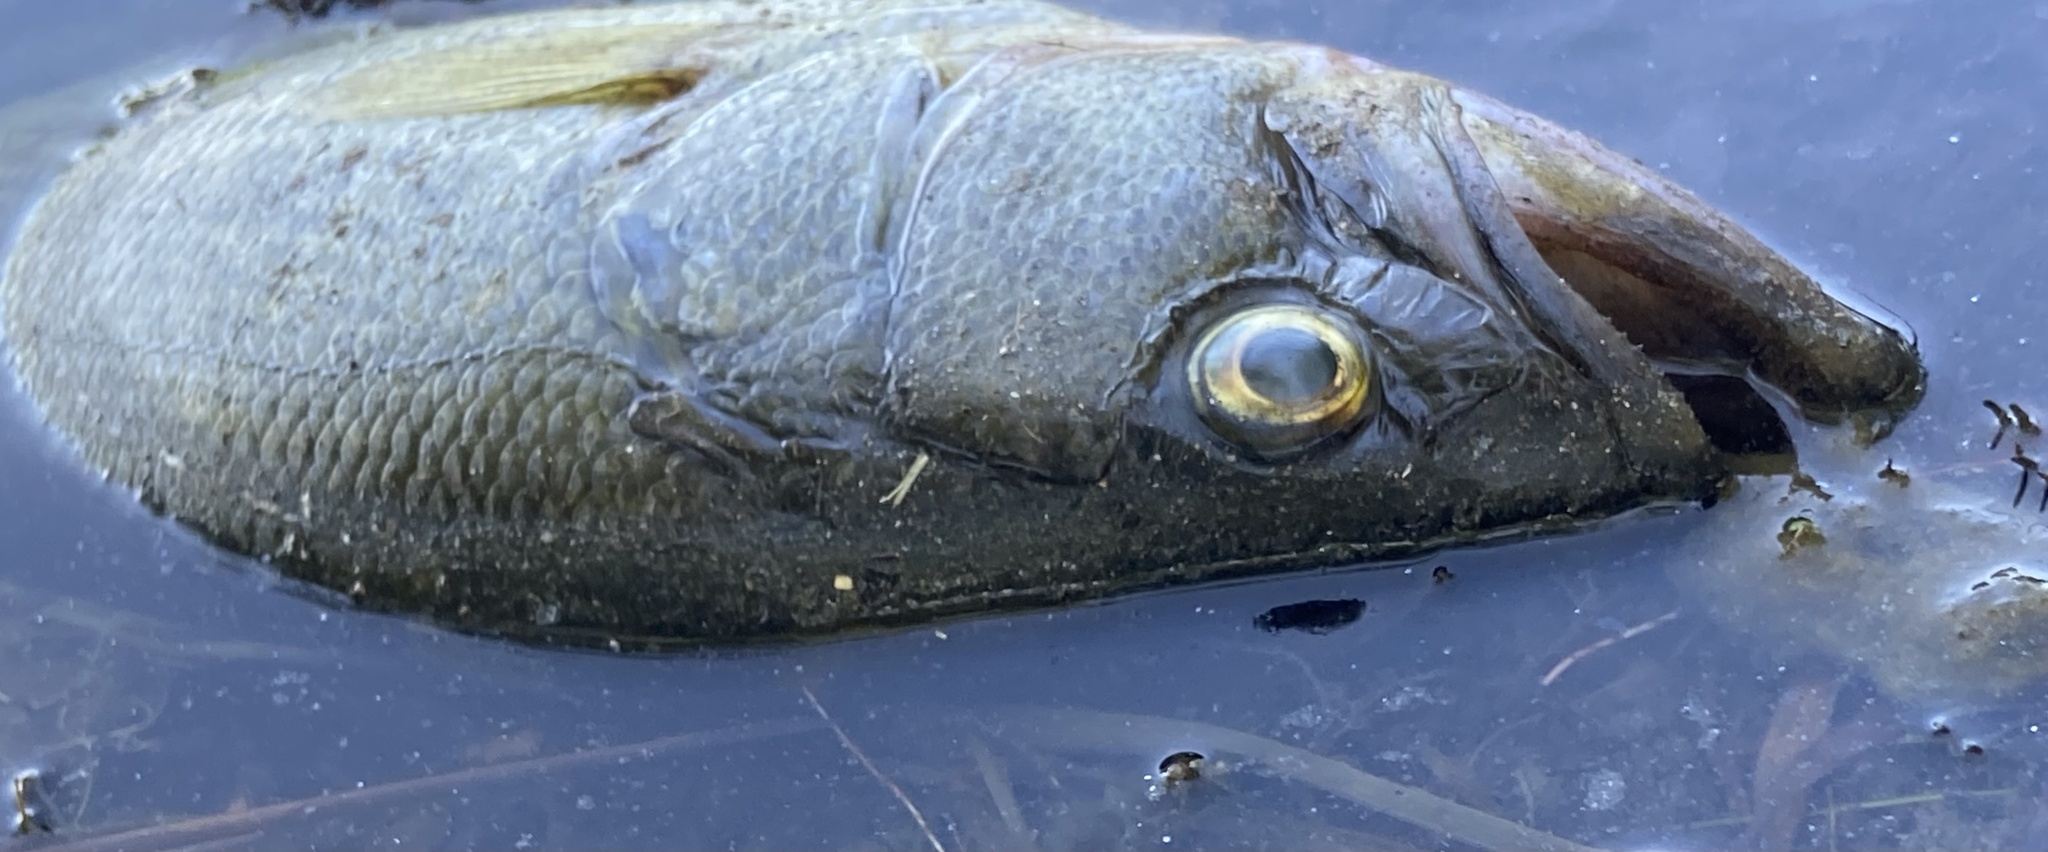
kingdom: Animalia
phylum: Chordata
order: Perciformes
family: Centrarchidae
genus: Micropterus
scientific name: Micropterus
